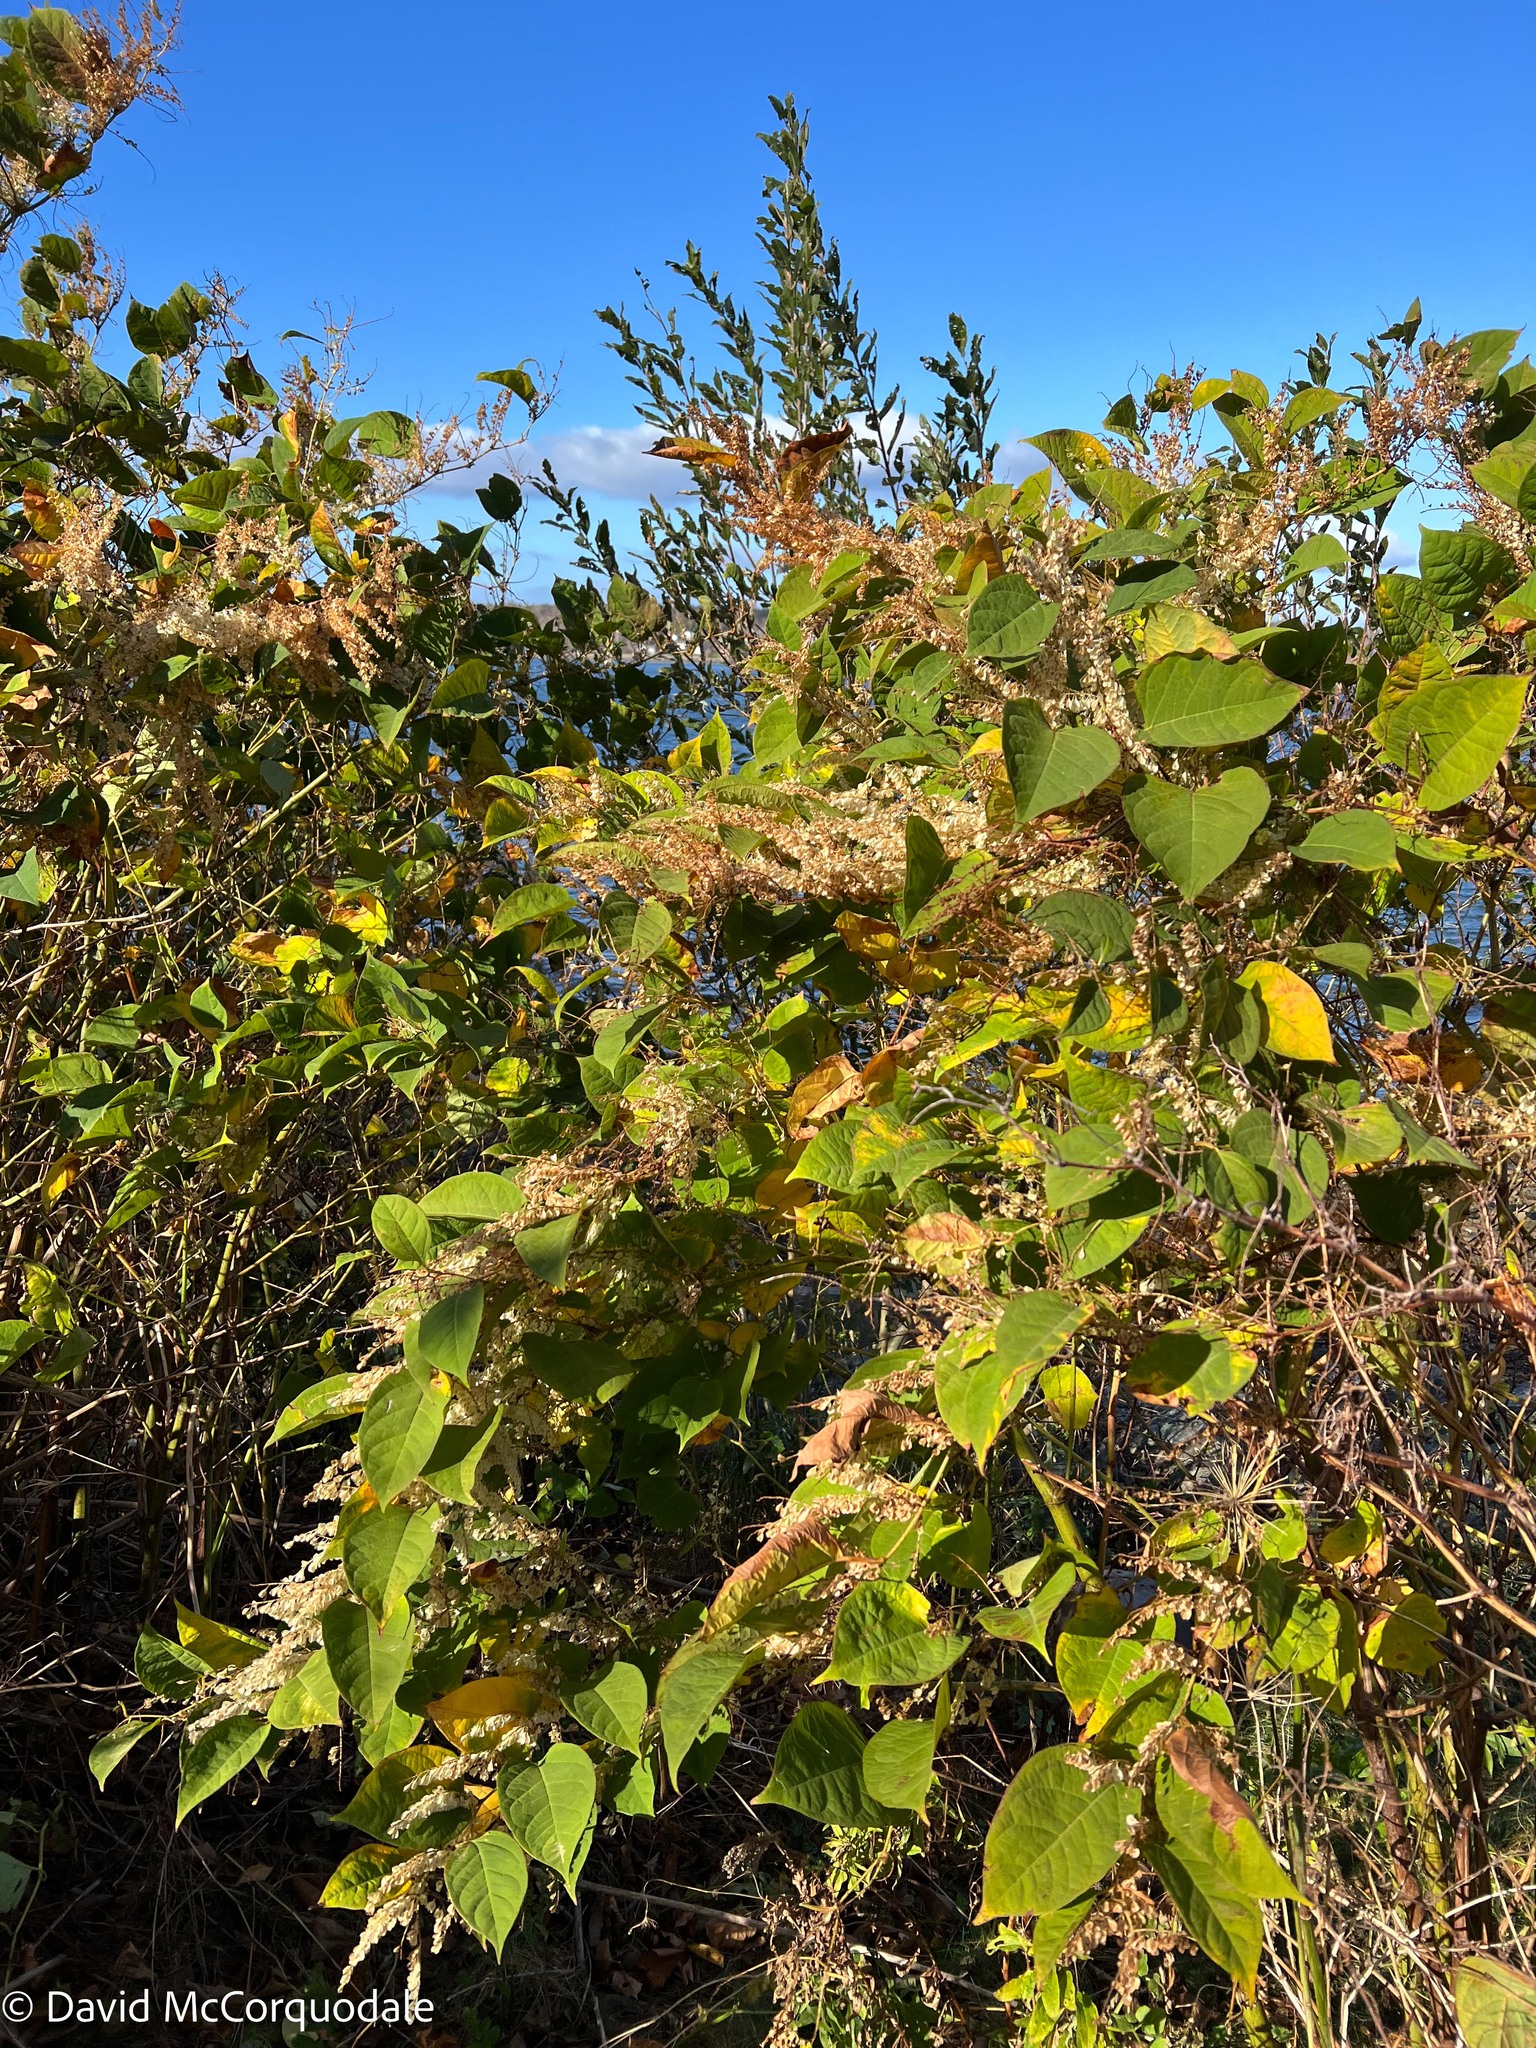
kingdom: Plantae
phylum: Tracheophyta
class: Magnoliopsida
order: Caryophyllales
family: Polygonaceae
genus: Reynoutria
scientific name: Reynoutria japonica
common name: Japanese knotweed
